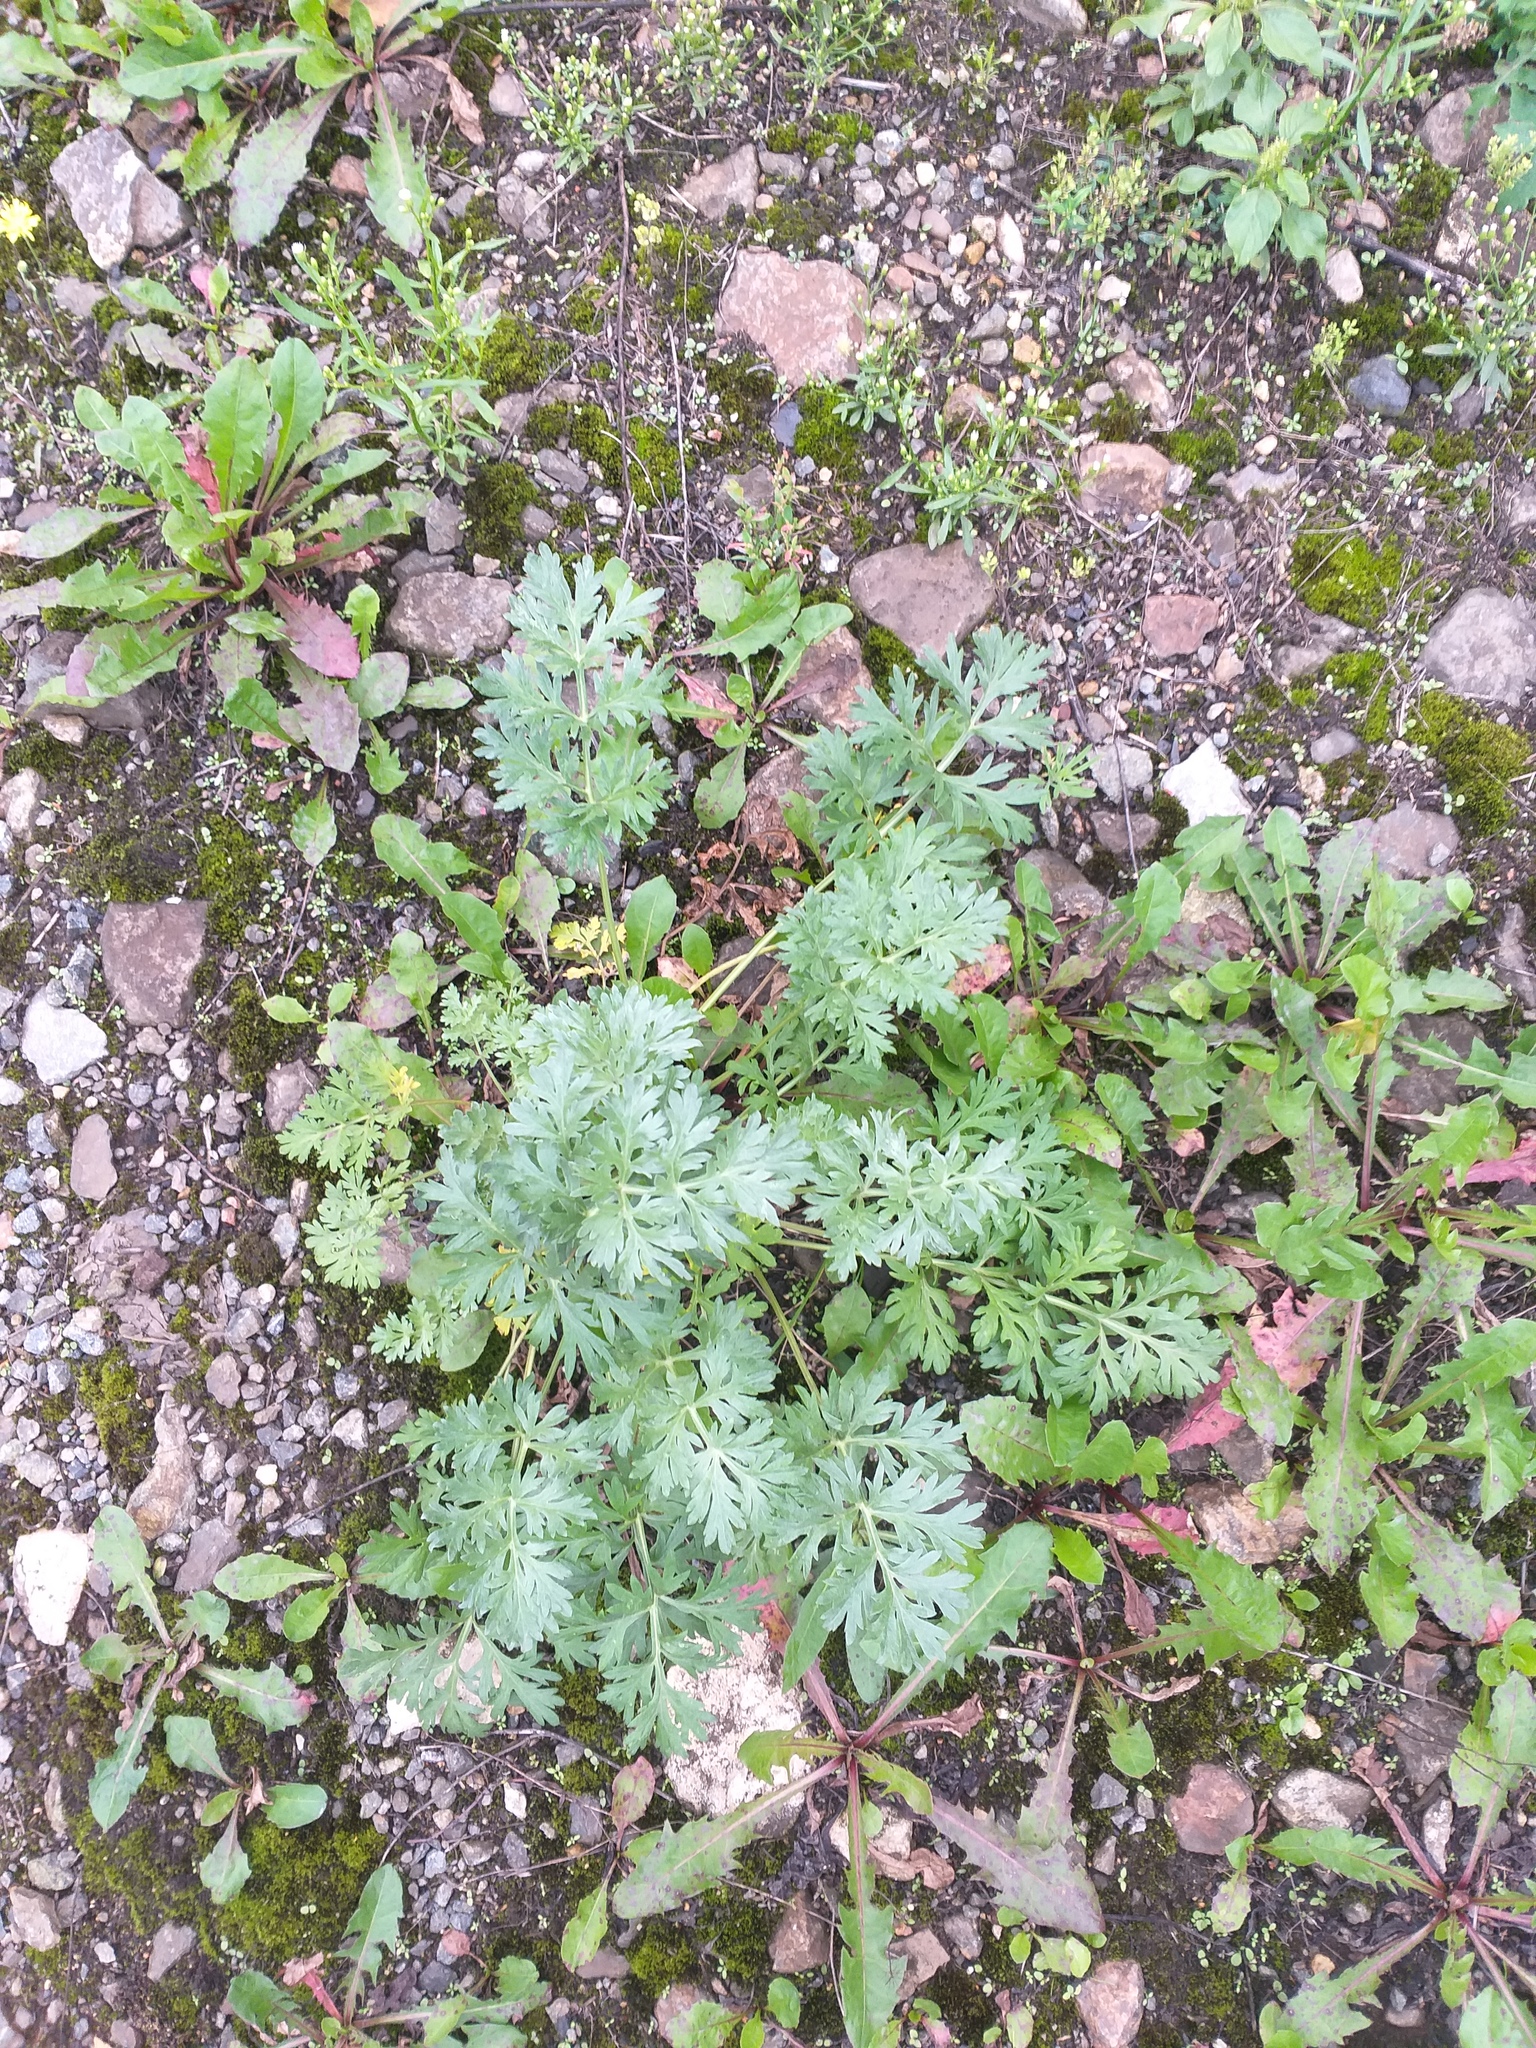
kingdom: Plantae
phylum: Tracheophyta
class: Magnoliopsida
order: Asterales
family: Asteraceae
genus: Artemisia
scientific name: Artemisia absinthium
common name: Wormwood
